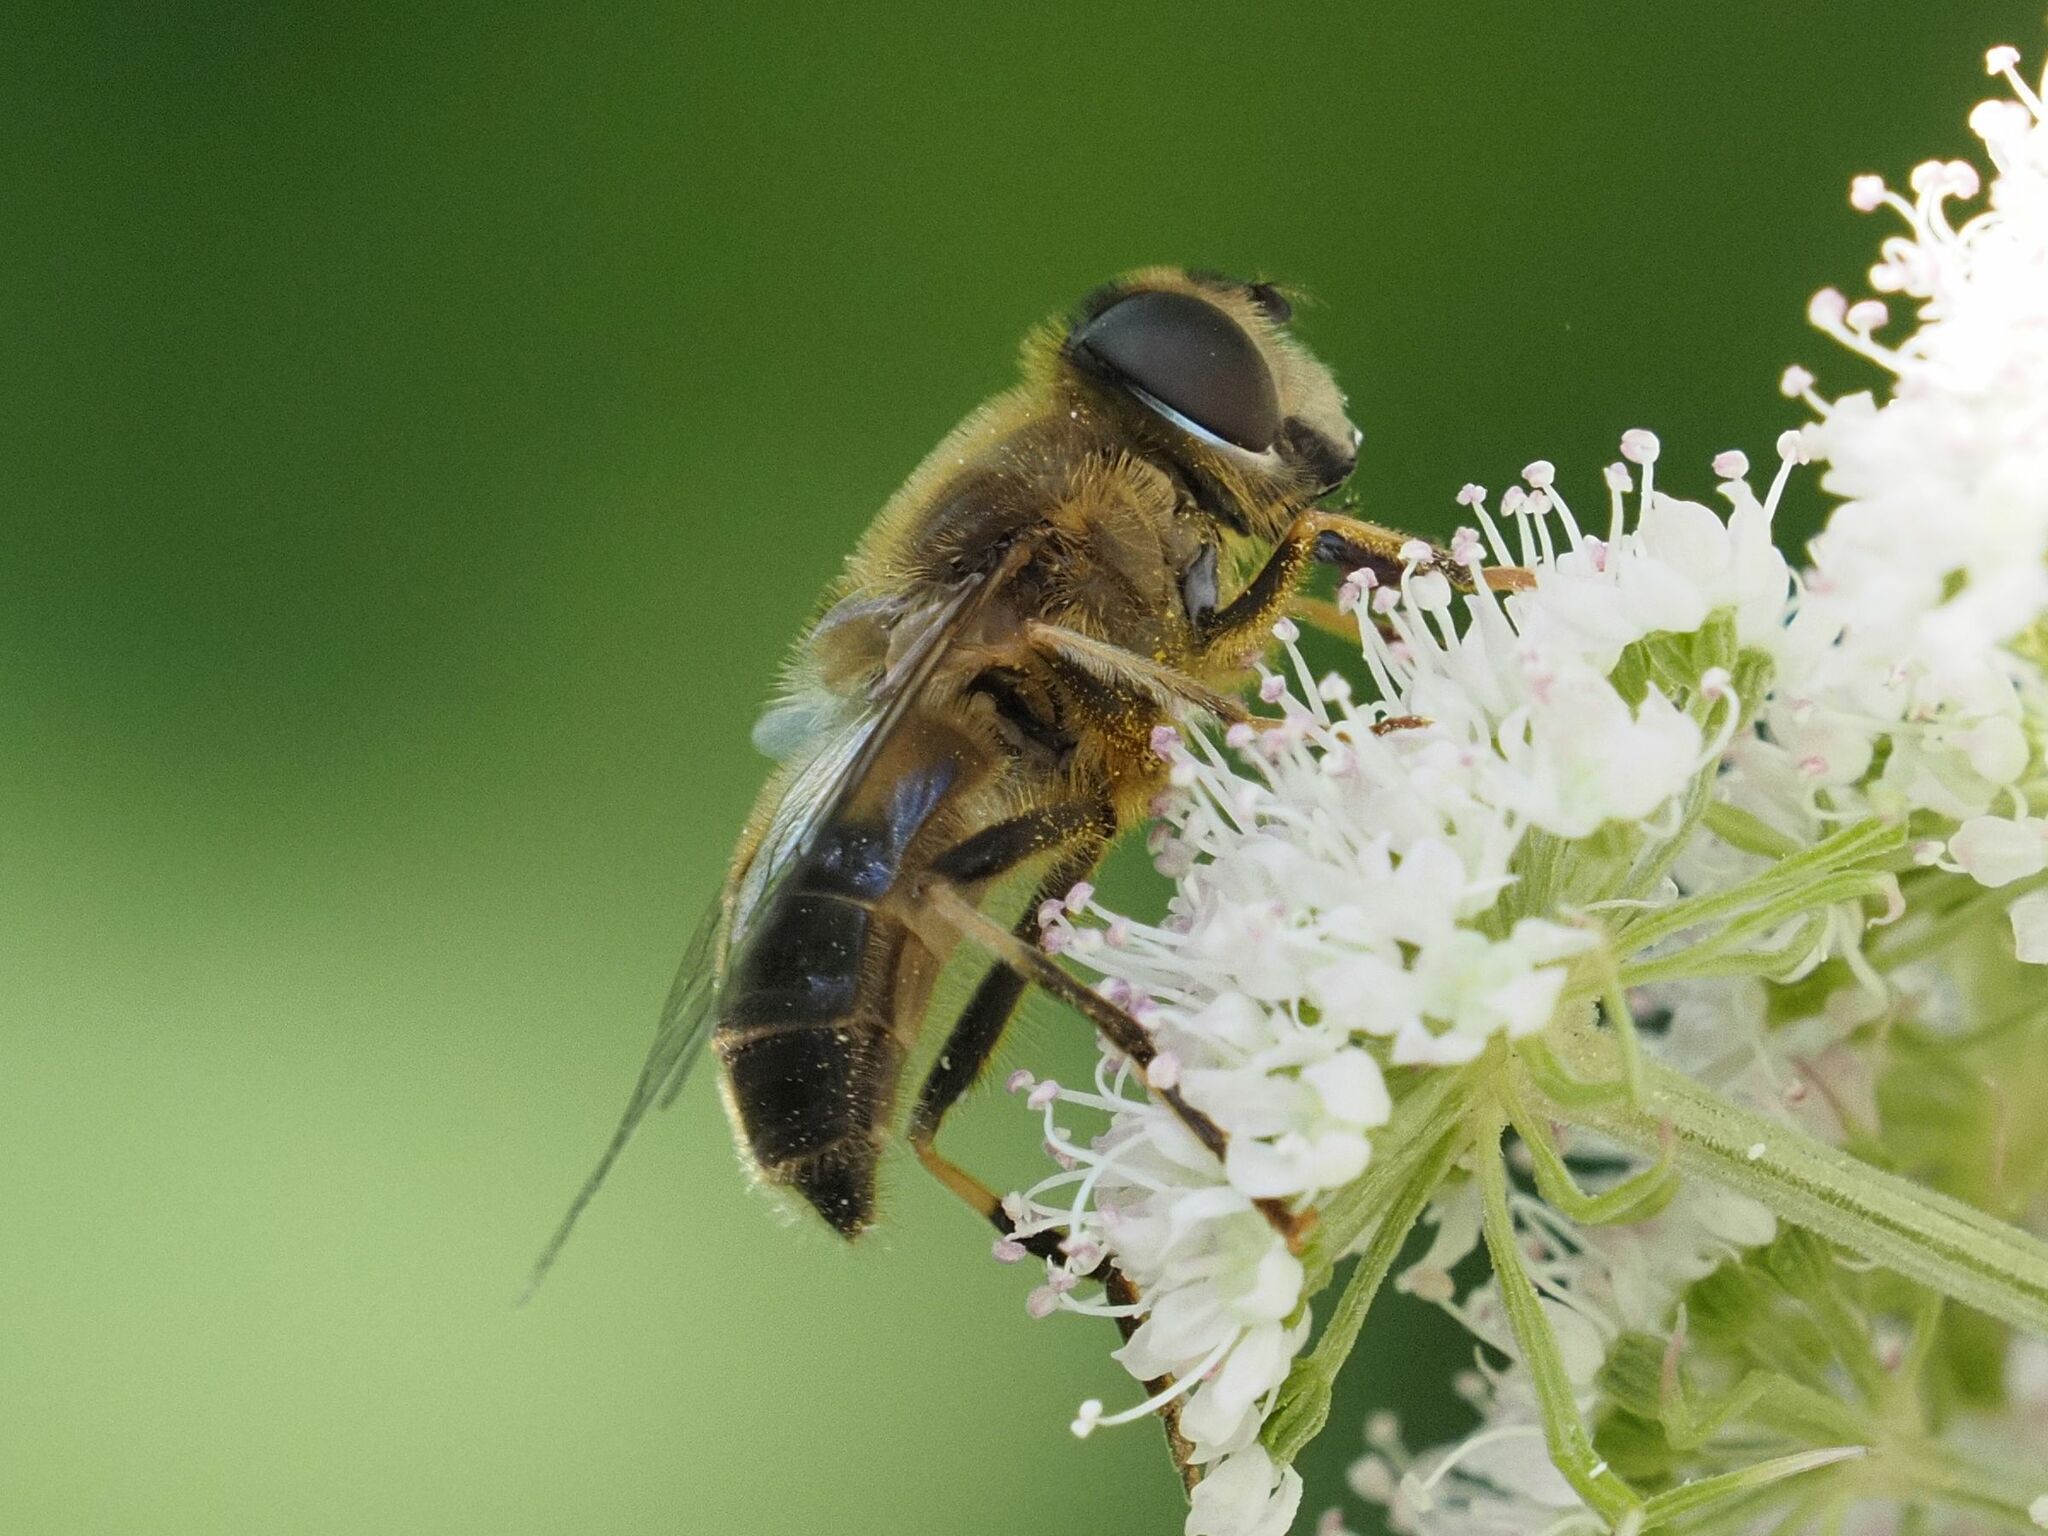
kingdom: Animalia
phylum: Arthropoda
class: Insecta
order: Diptera
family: Syrphidae
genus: Eristalis
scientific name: Eristalis pertinax
